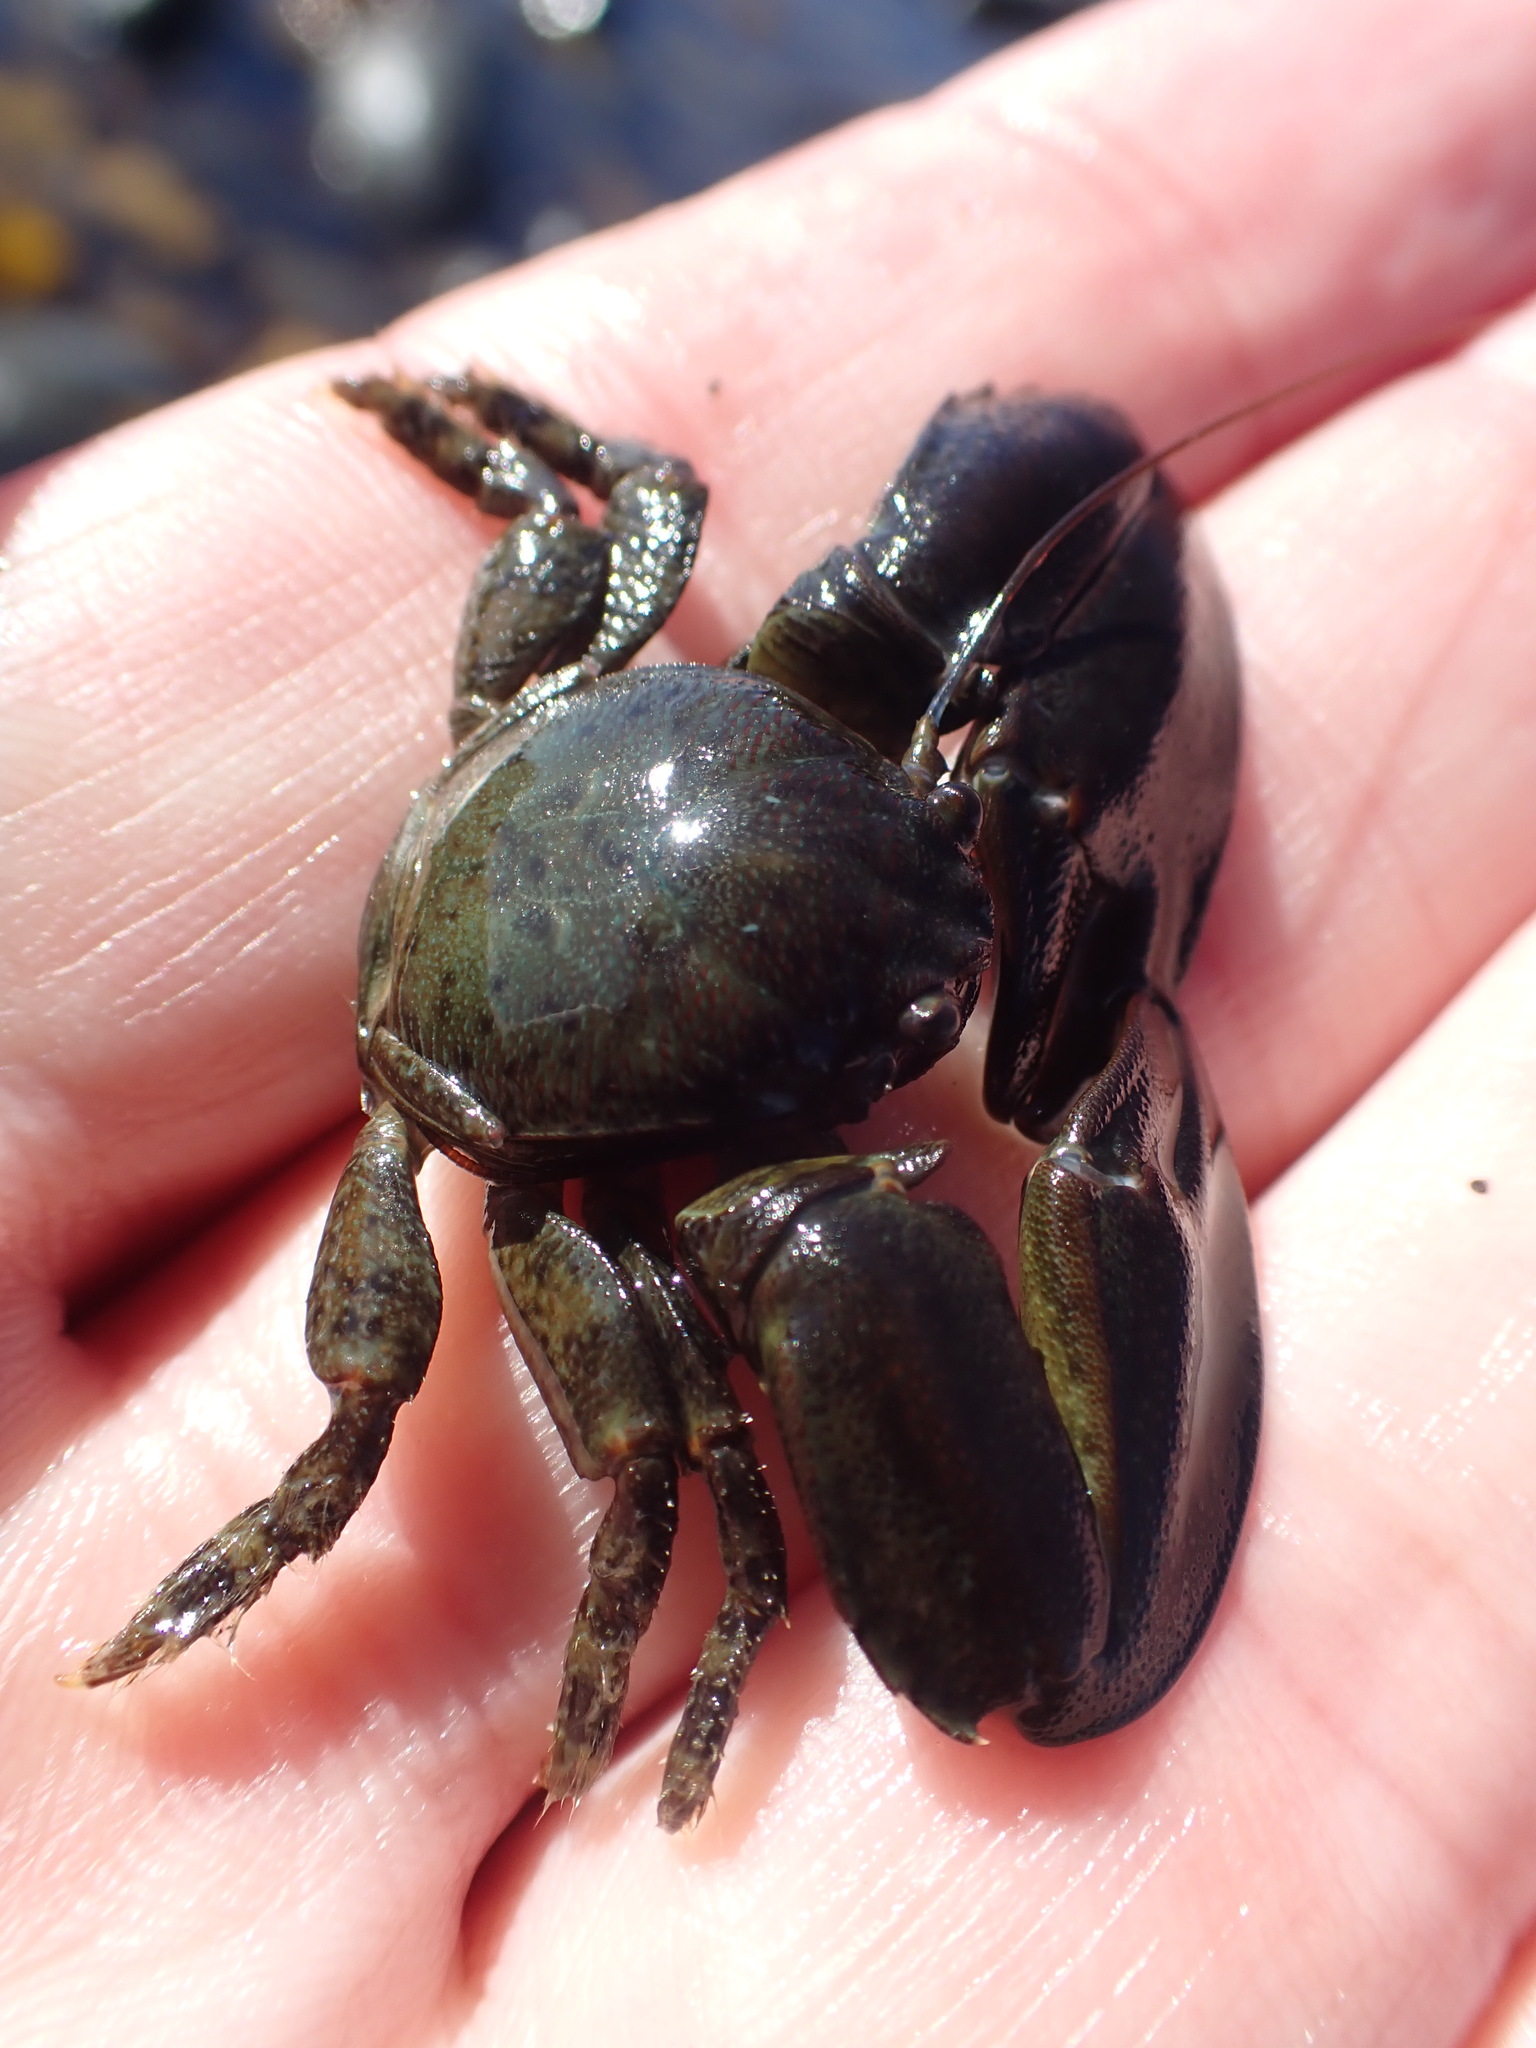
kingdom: Animalia
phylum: Arthropoda
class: Malacostraca
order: Decapoda
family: Porcellanidae
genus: Petrolisthes
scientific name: Petrolisthes elongatus
